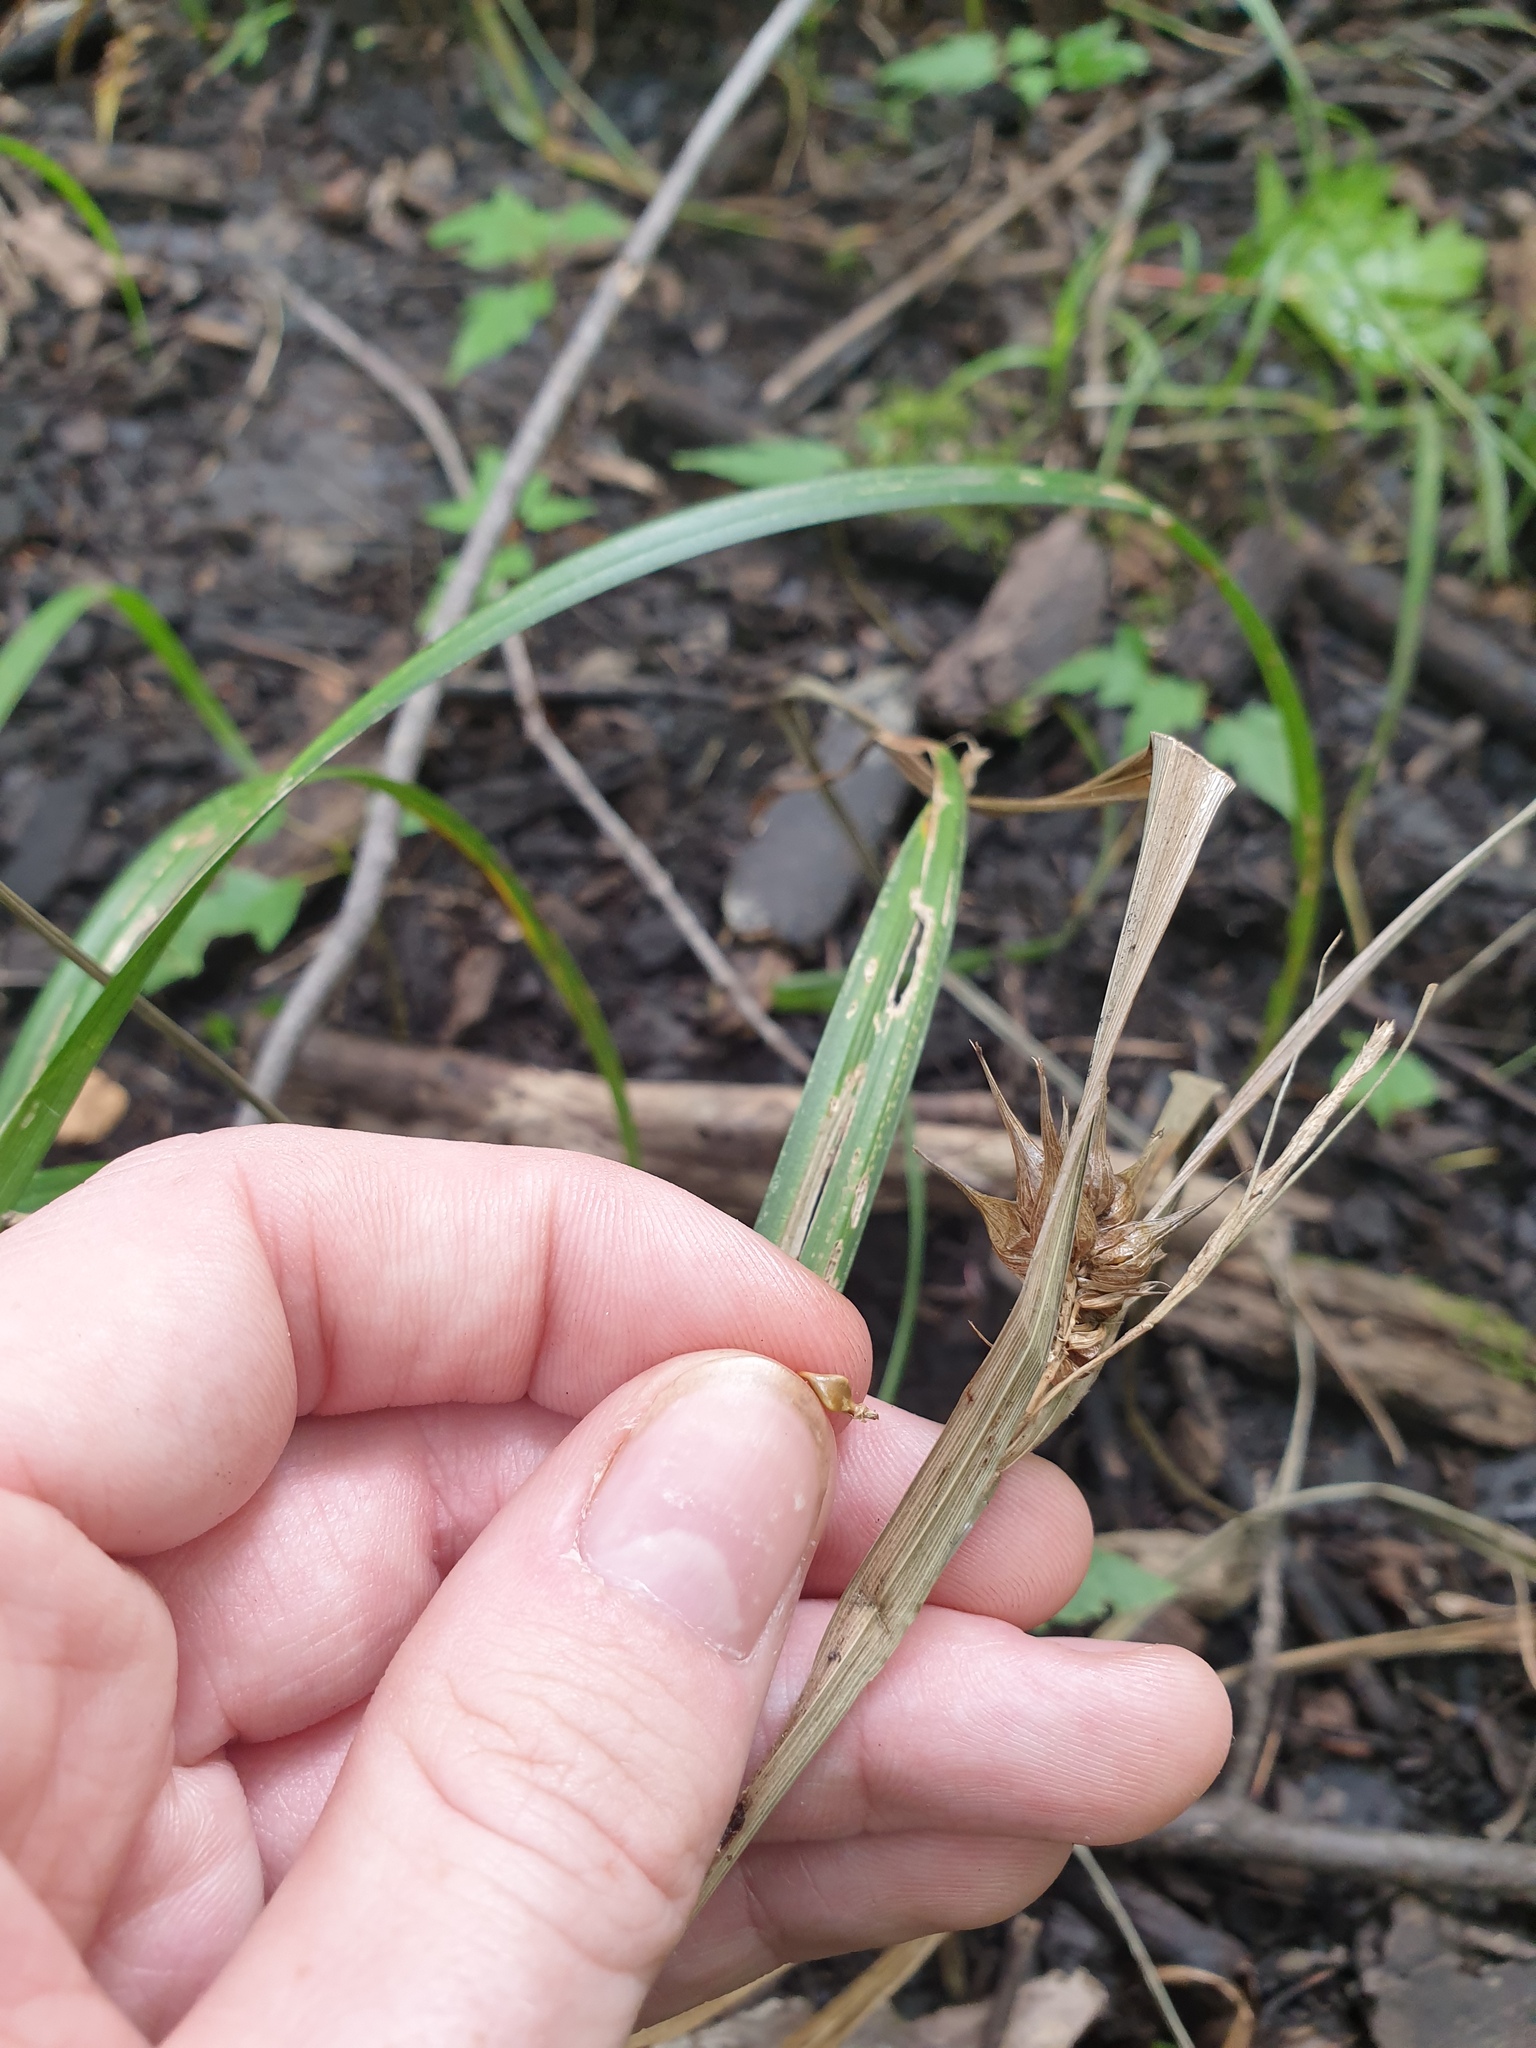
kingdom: Plantae
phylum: Tracheophyta
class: Liliopsida
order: Poales
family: Cyperaceae
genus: Carex
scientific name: Carex lupulina
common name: Hop sedge
